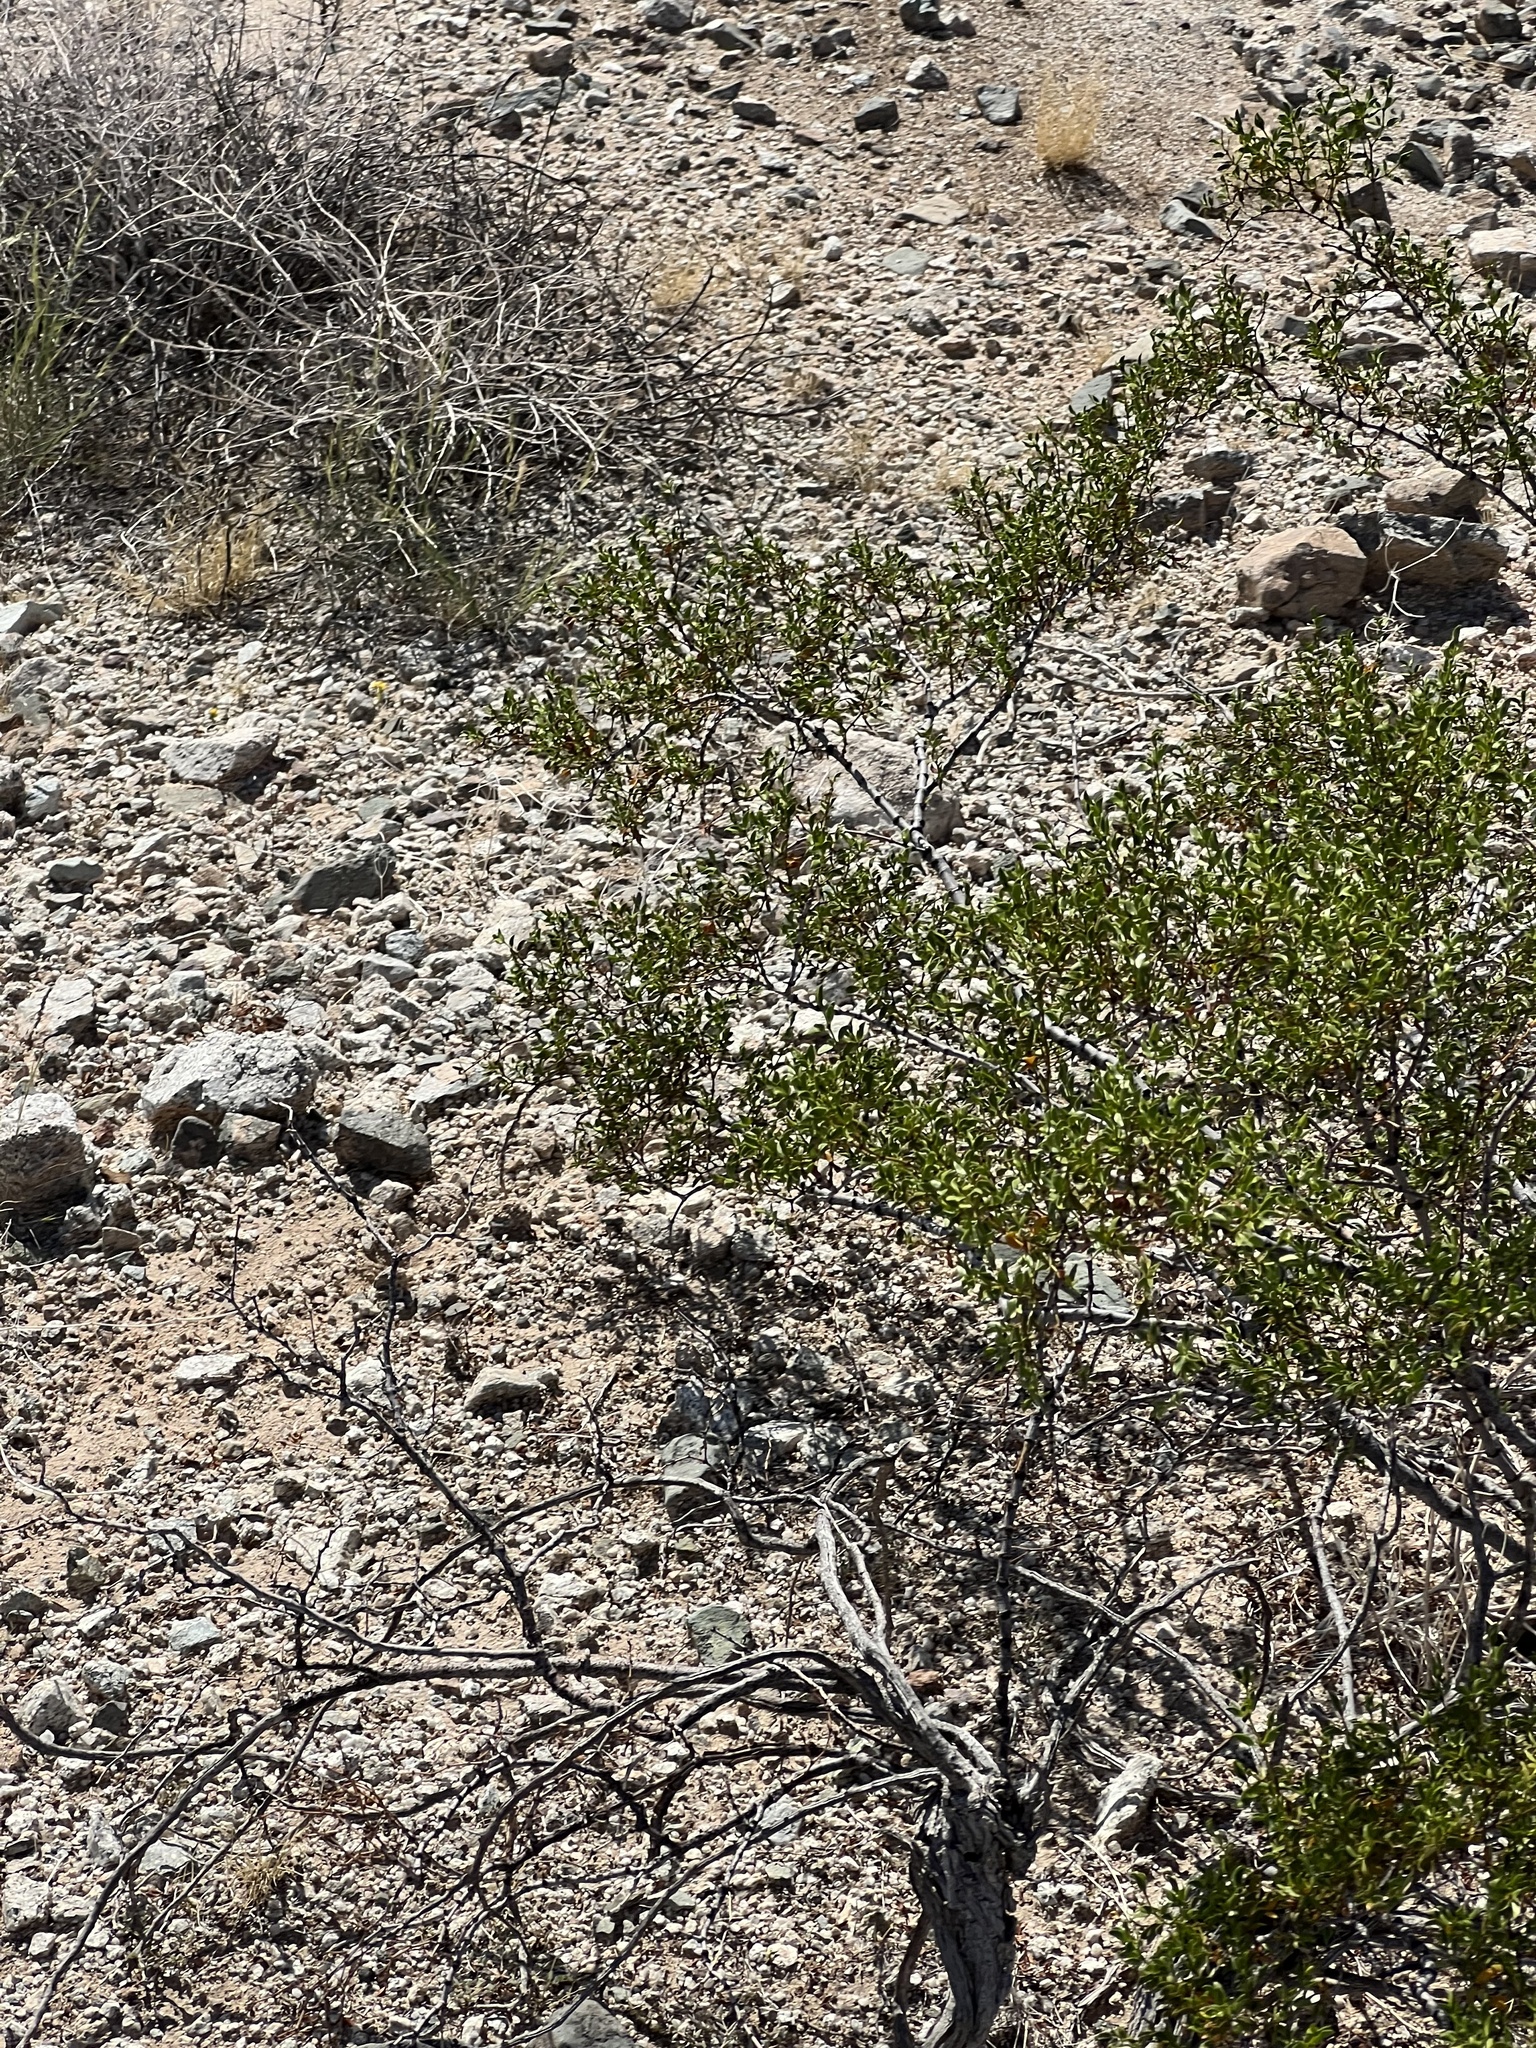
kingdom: Plantae
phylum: Tracheophyta
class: Magnoliopsida
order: Zygophyllales
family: Zygophyllaceae
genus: Larrea
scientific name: Larrea tridentata
